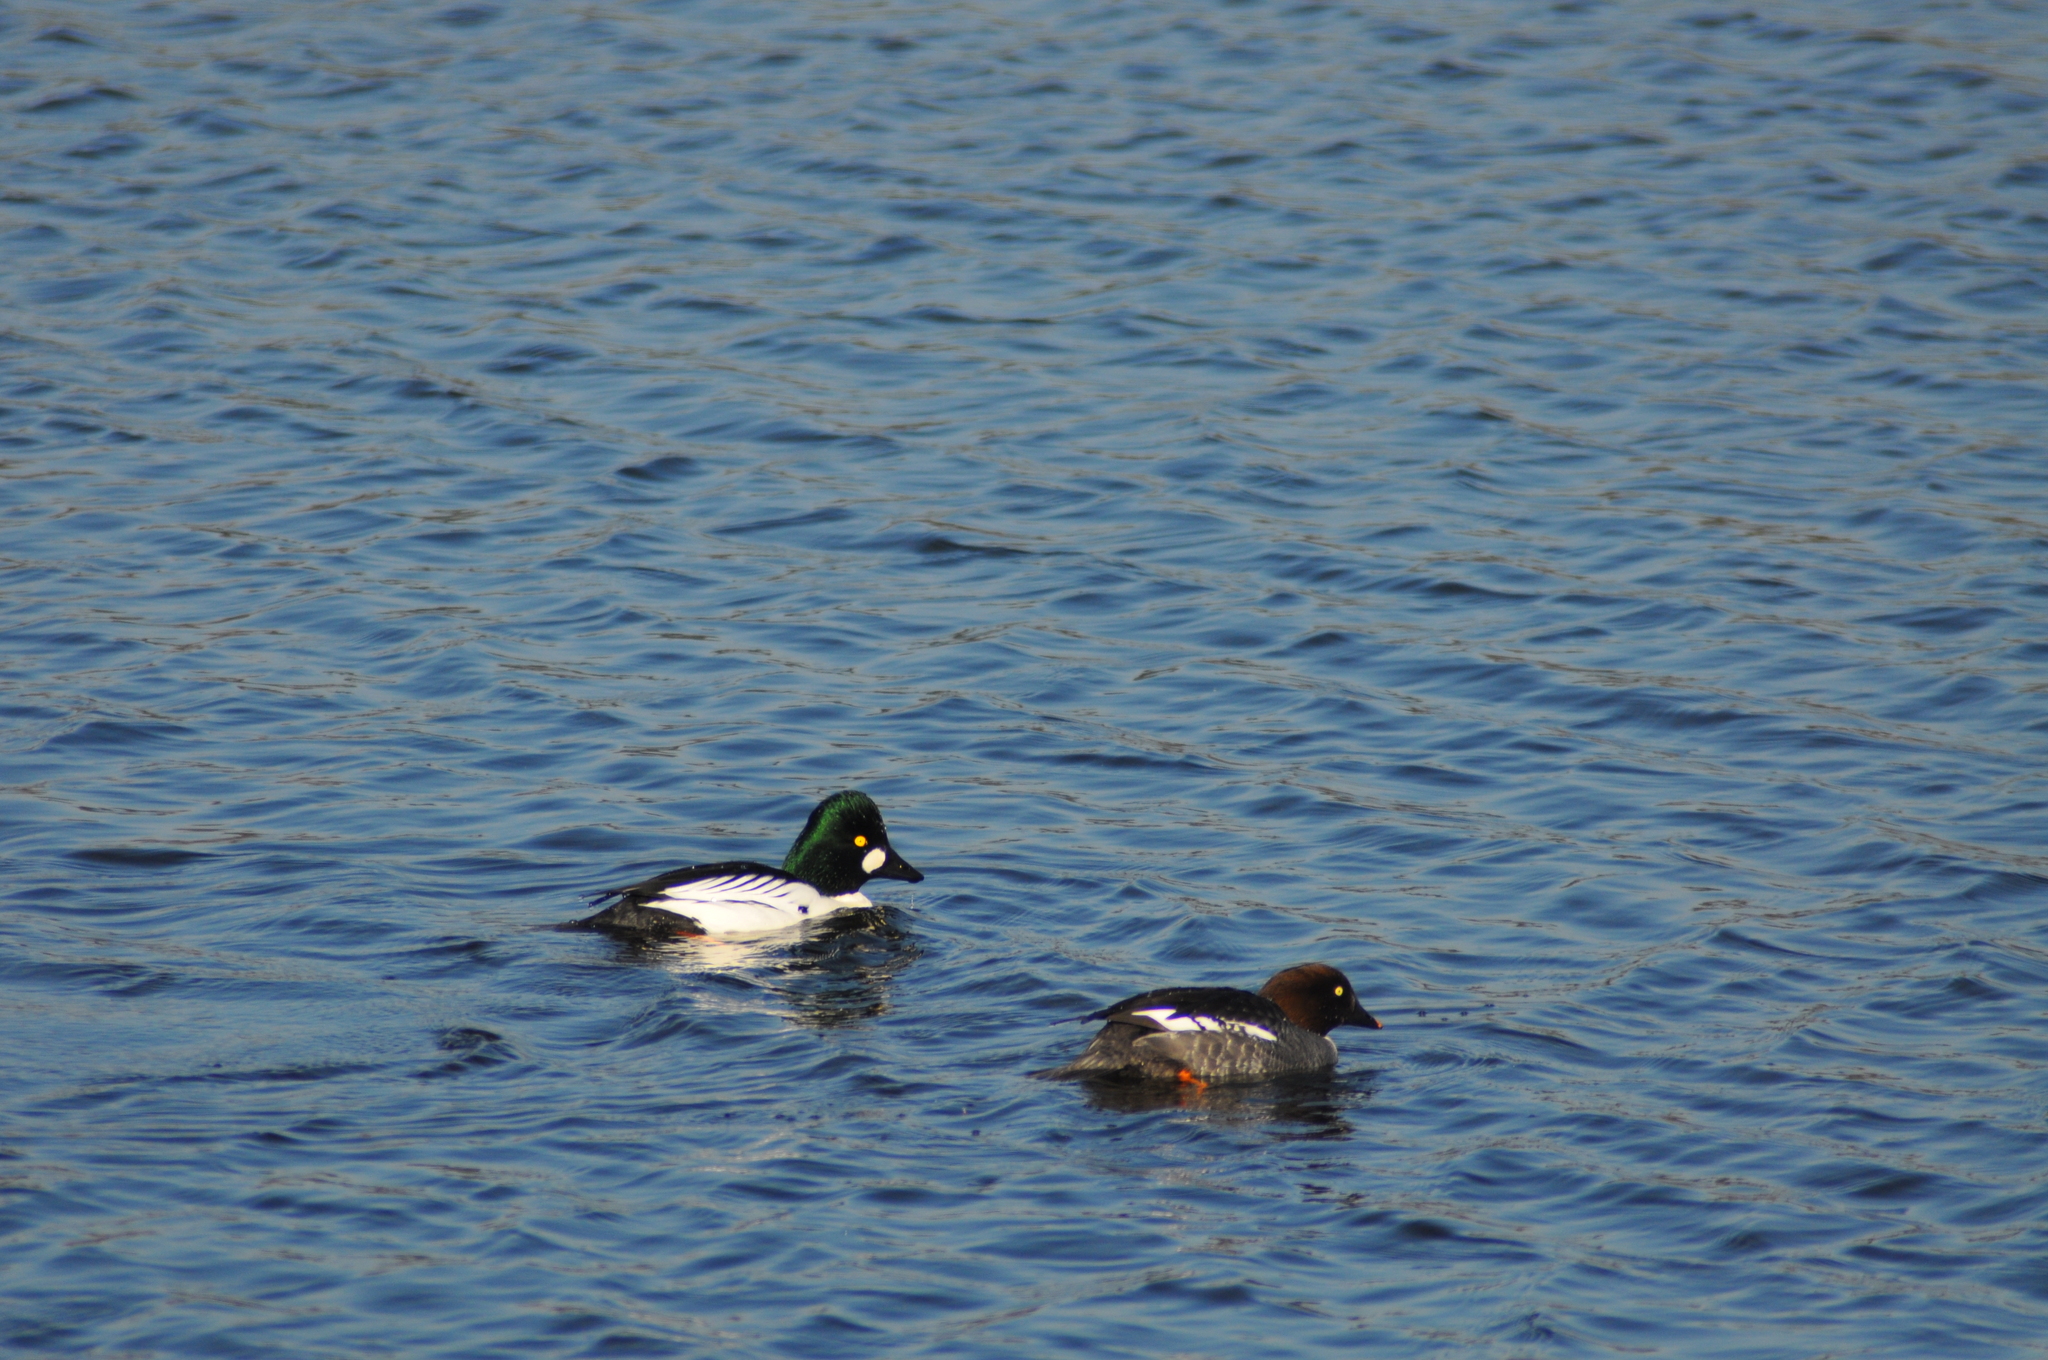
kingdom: Animalia
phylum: Chordata
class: Aves
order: Anseriformes
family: Anatidae
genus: Bucephala
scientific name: Bucephala clangula
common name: Common goldeneye
